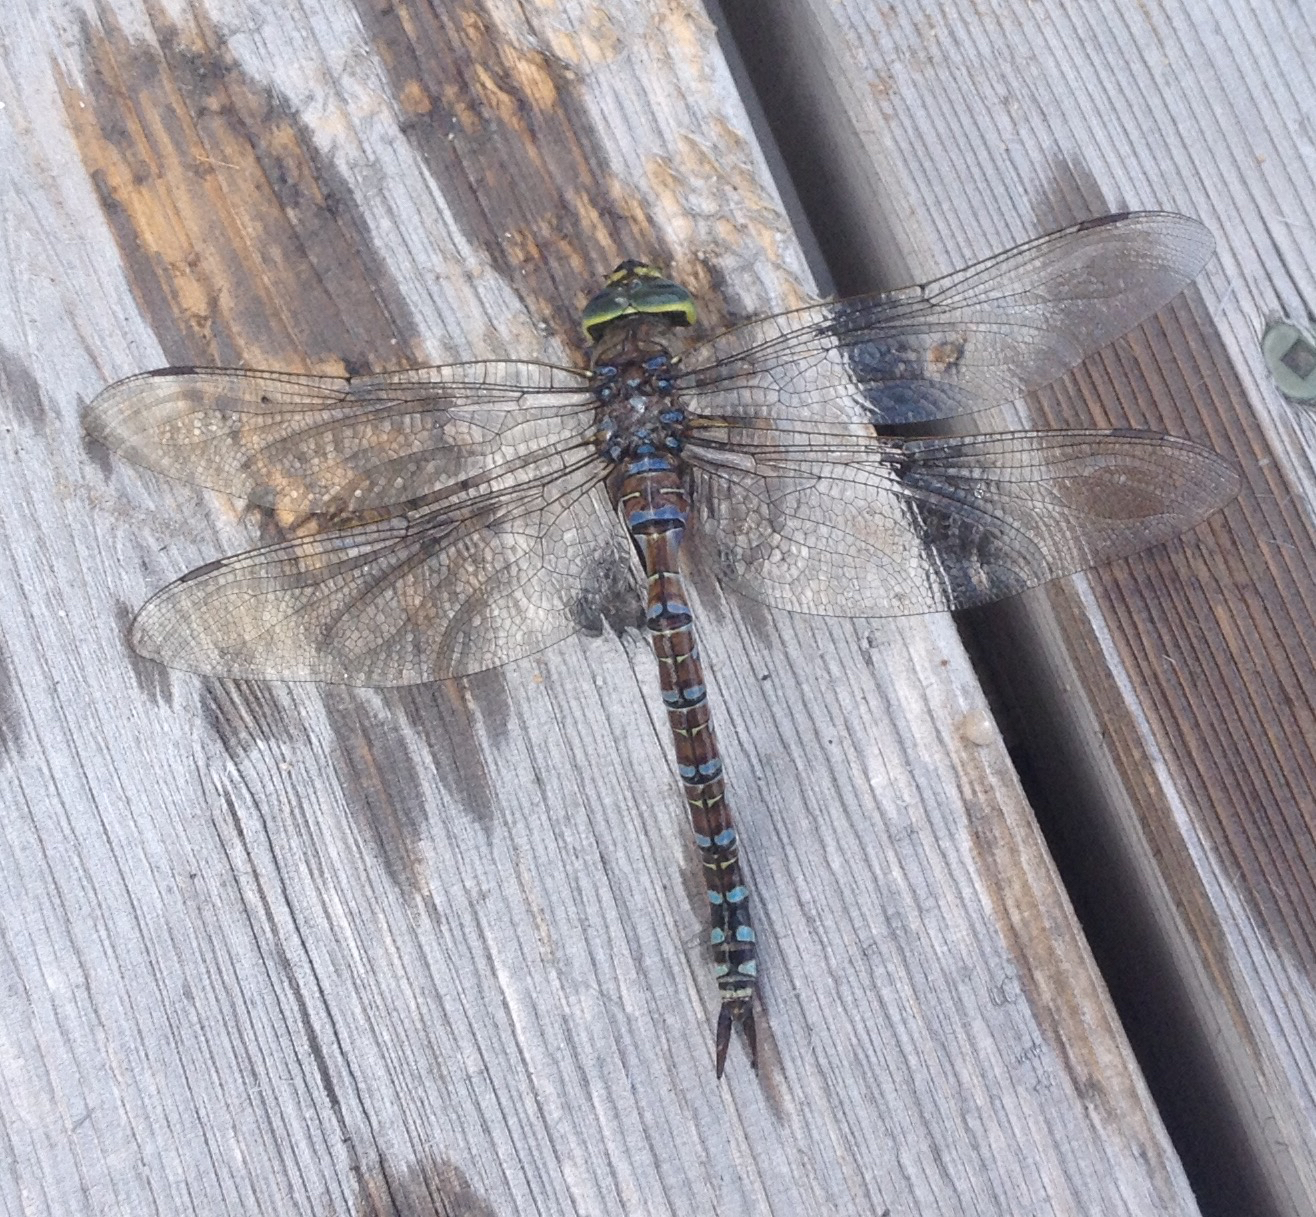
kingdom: Animalia
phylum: Arthropoda
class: Insecta
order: Odonata
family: Aeshnidae
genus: Aeshna
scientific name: Aeshna eremita
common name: Lake darner
